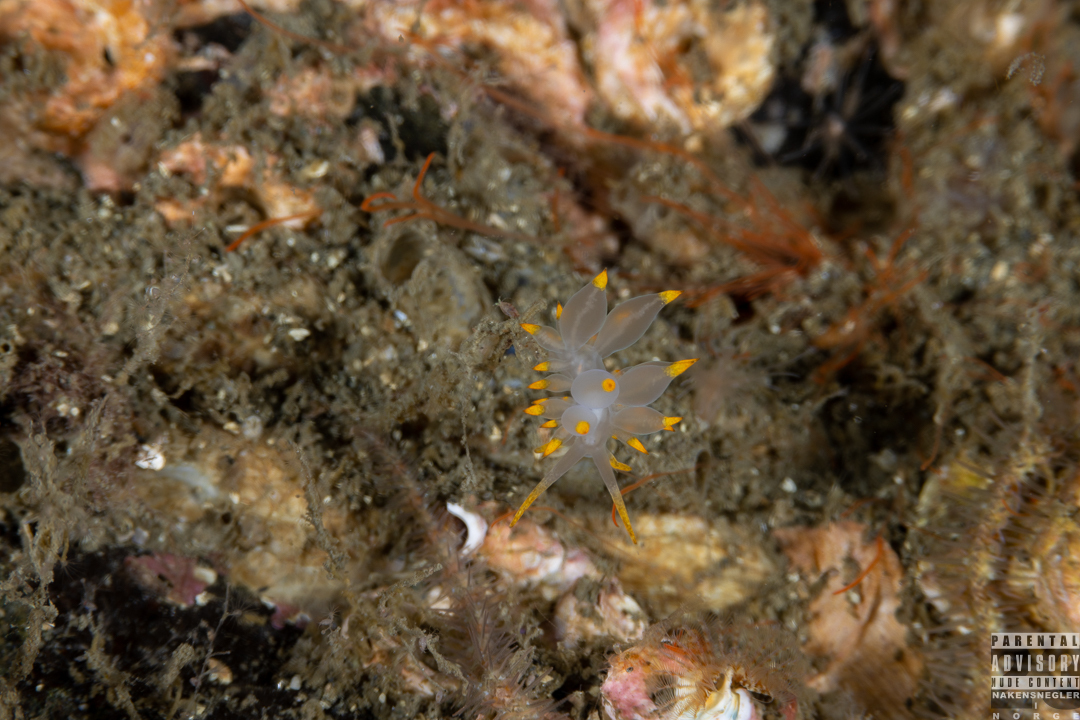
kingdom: Animalia
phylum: Mollusca
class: Gastropoda
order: Nudibranchia
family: Eubranchidae
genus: Amphorina
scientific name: Amphorina farrani
